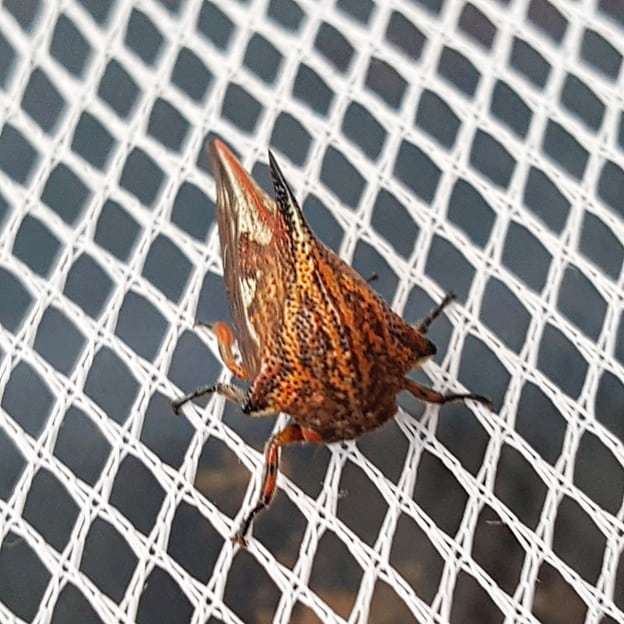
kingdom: Animalia
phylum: Arthropoda
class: Insecta
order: Hemiptera
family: Membracidae
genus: Umbonia
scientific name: Umbonia reclinata
